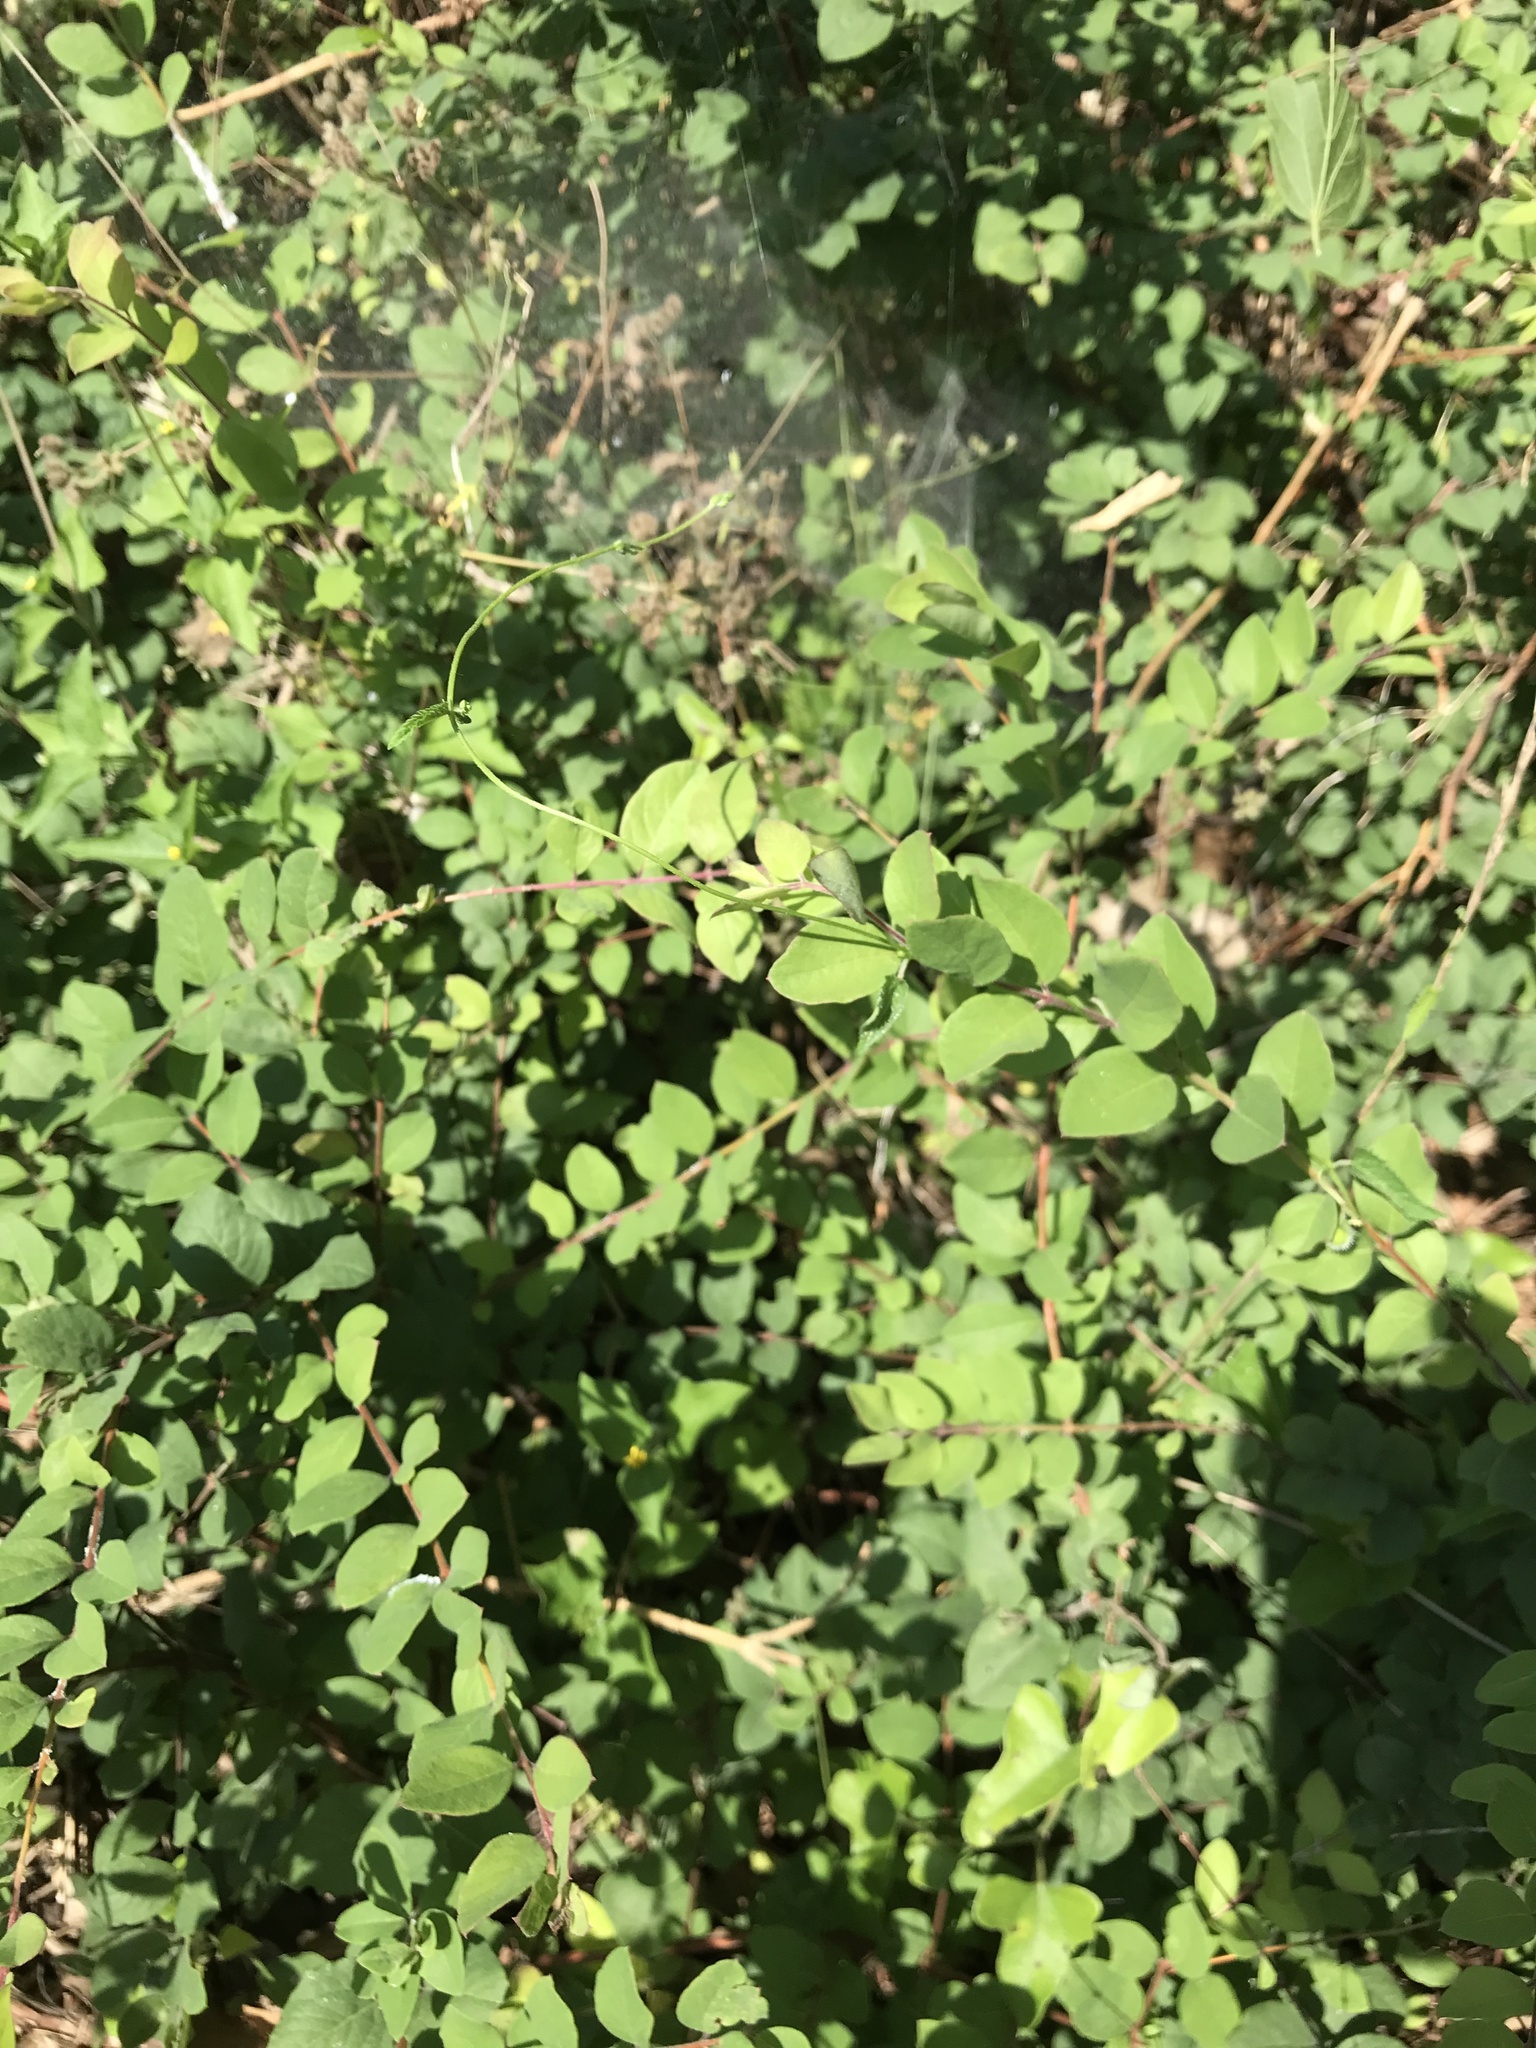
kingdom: Plantae
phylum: Tracheophyta
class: Magnoliopsida
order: Dipsacales
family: Caprifoliaceae
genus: Symphoricarpos
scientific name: Symphoricarpos orbiculatus
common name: Coralberry
